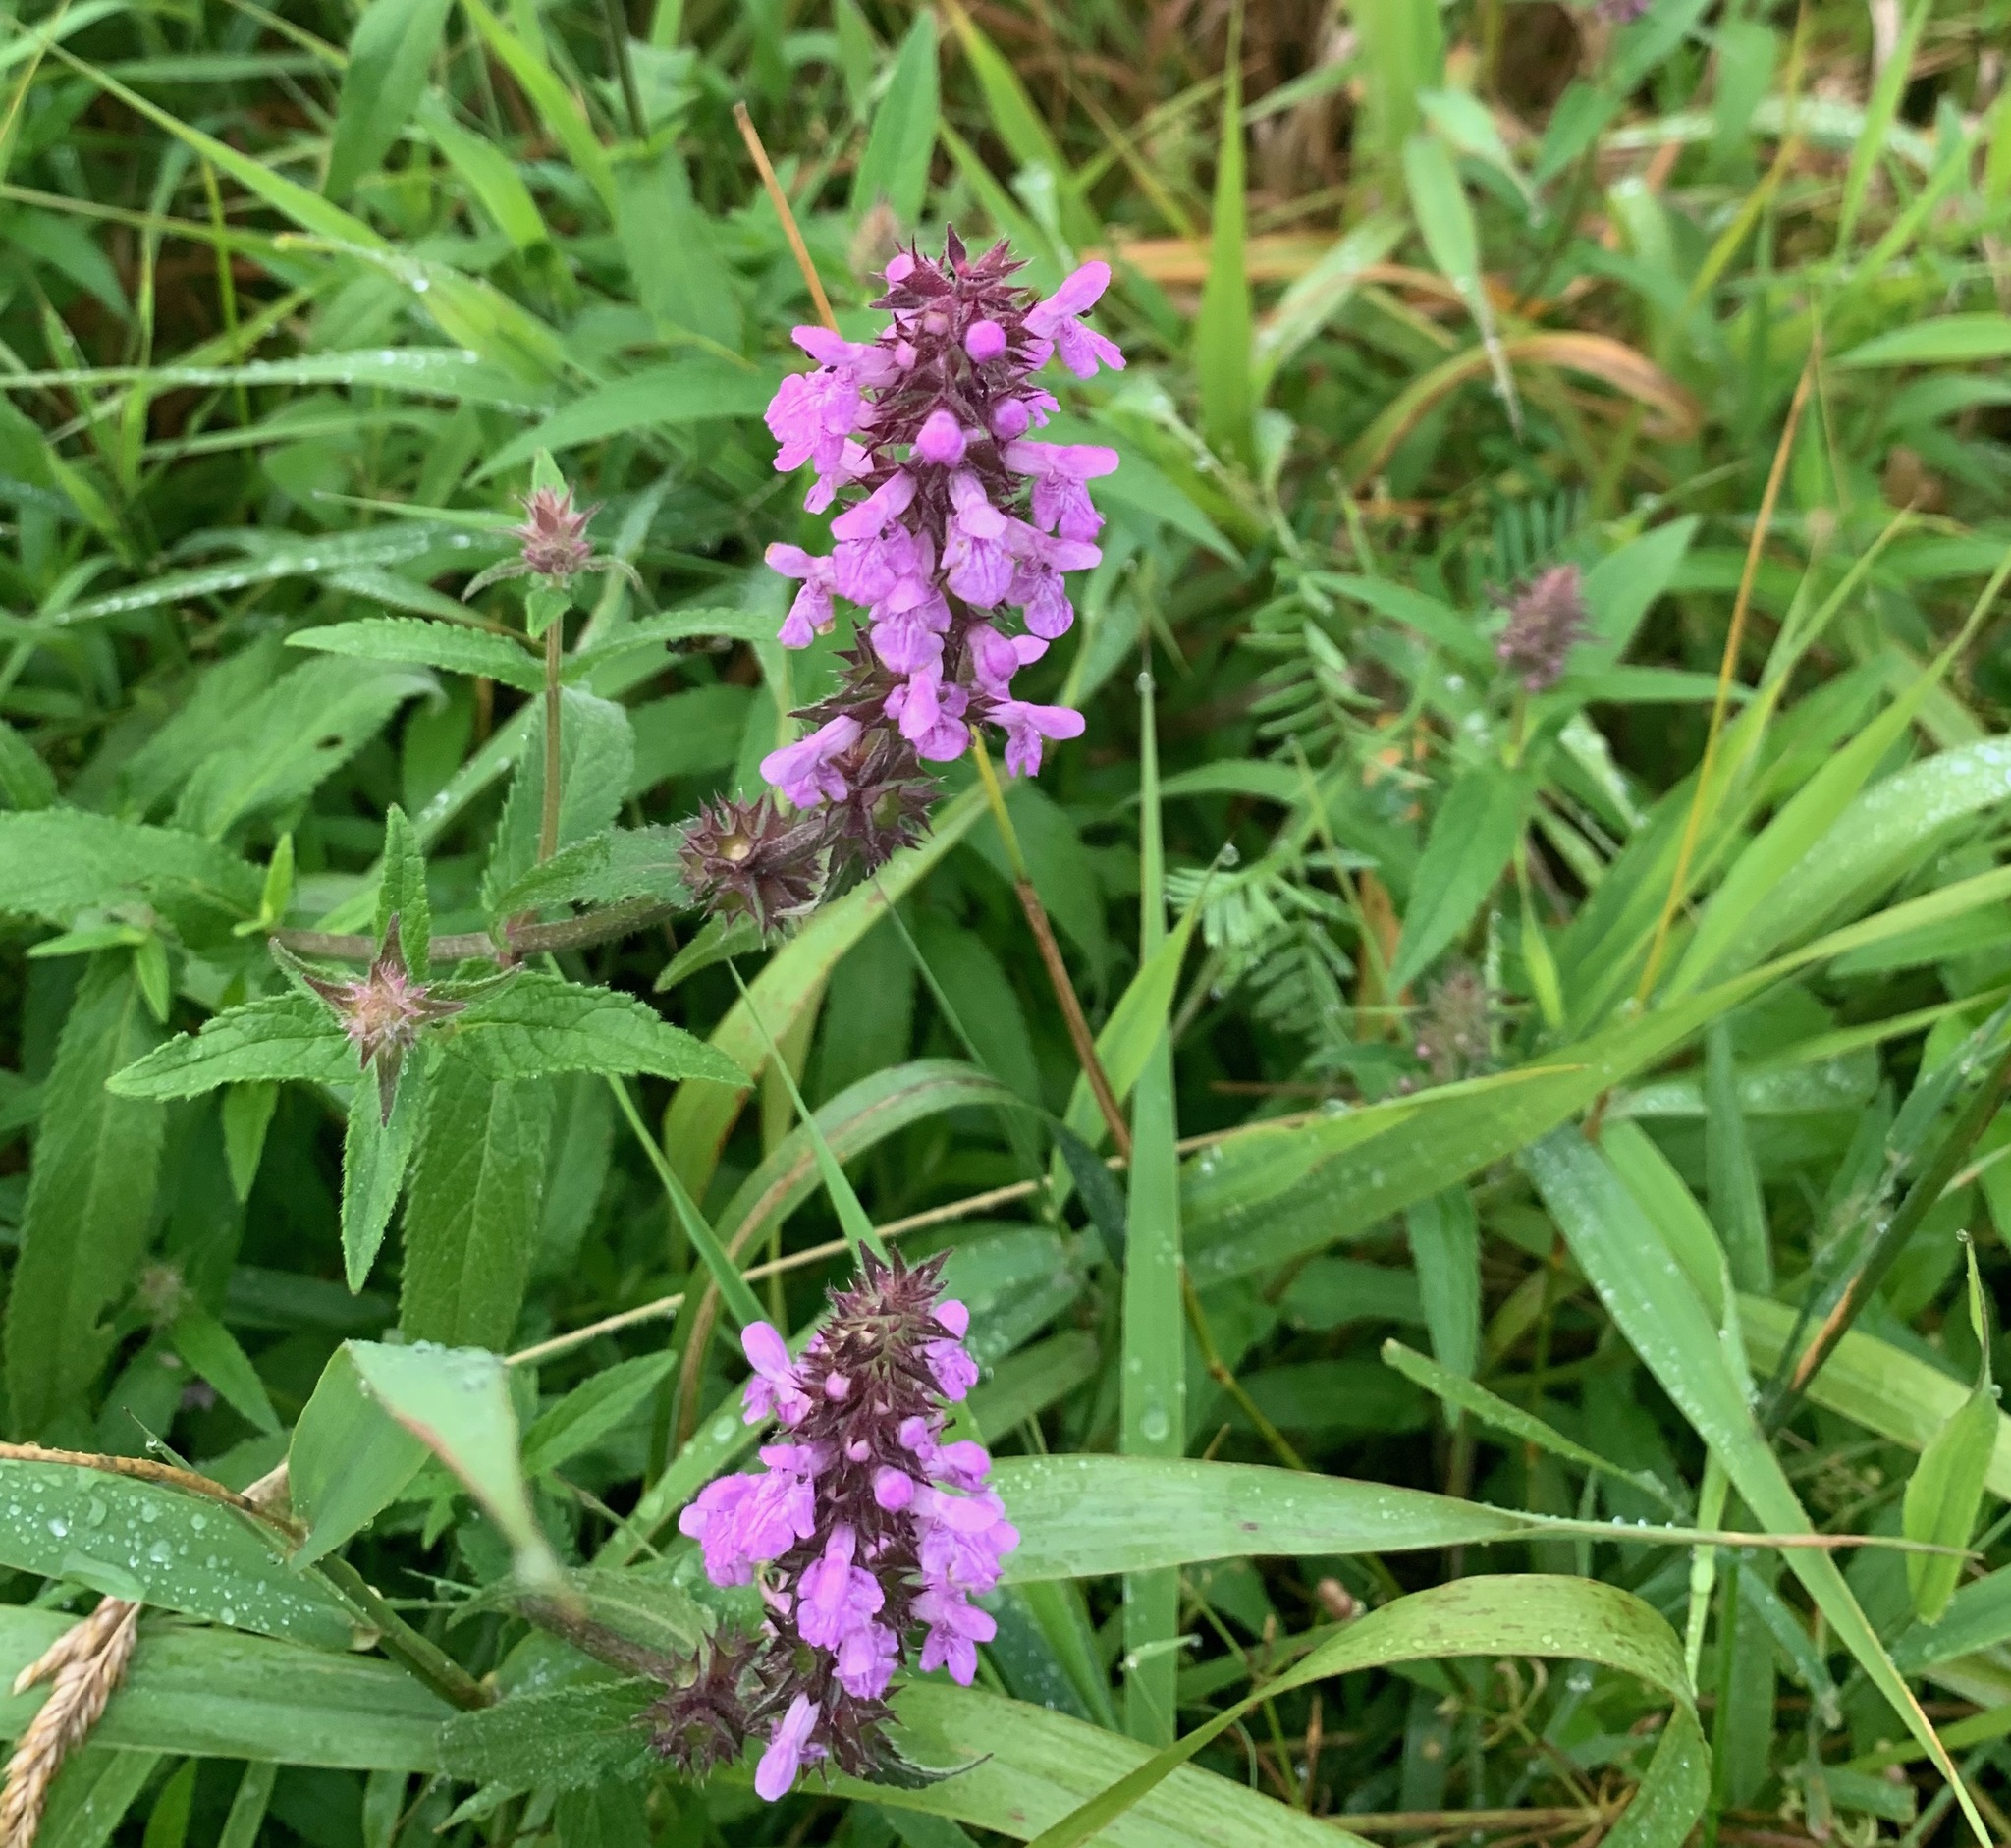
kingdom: Plantae
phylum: Tracheophyta
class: Magnoliopsida
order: Lamiales
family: Lamiaceae
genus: Stachys
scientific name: Stachys palustris
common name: Marsh woundwort
